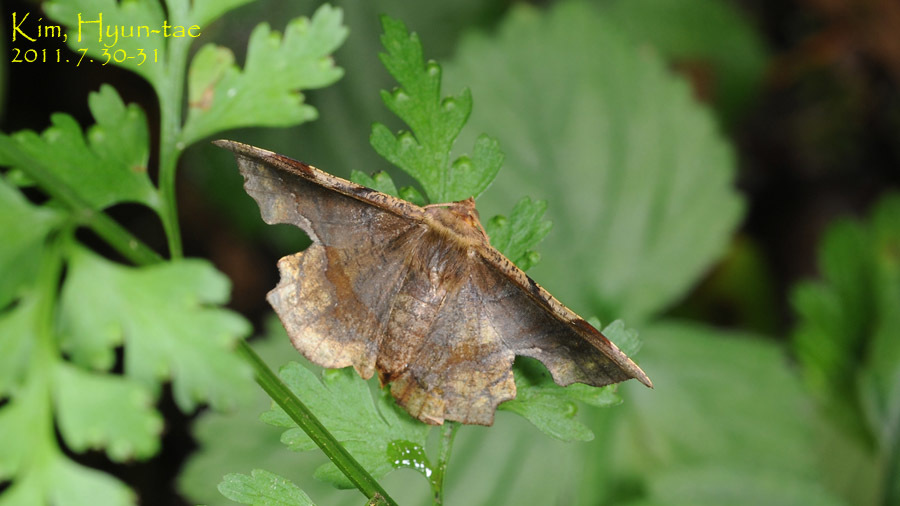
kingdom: Animalia
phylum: Arthropoda
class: Insecta
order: Lepidoptera
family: Geometridae
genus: Fascellina
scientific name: Fascellina chromataria
